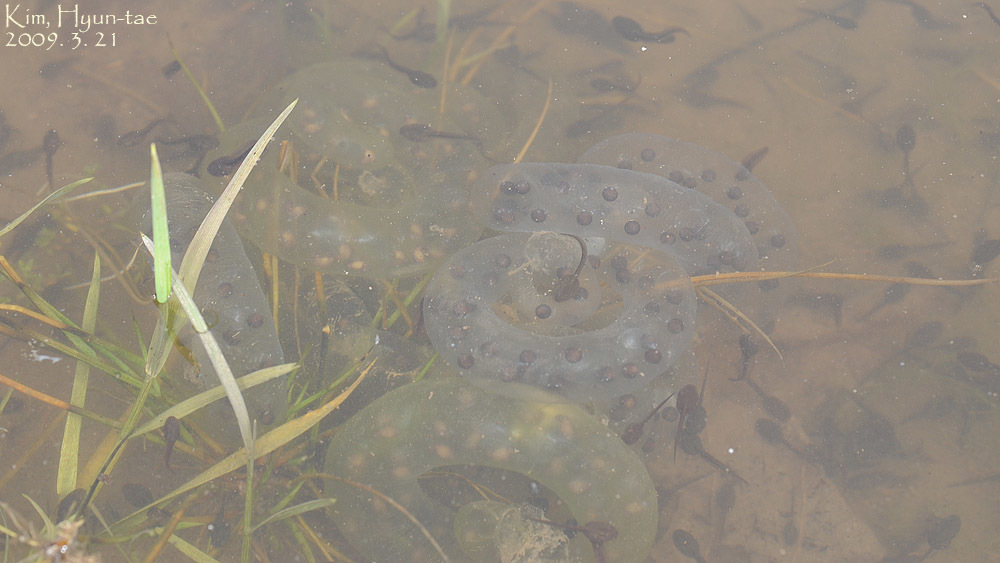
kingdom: Animalia
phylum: Chordata
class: Amphibia
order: Caudata
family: Hynobiidae
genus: Hynobius
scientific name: Hynobius leechii
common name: Gensan salamander
